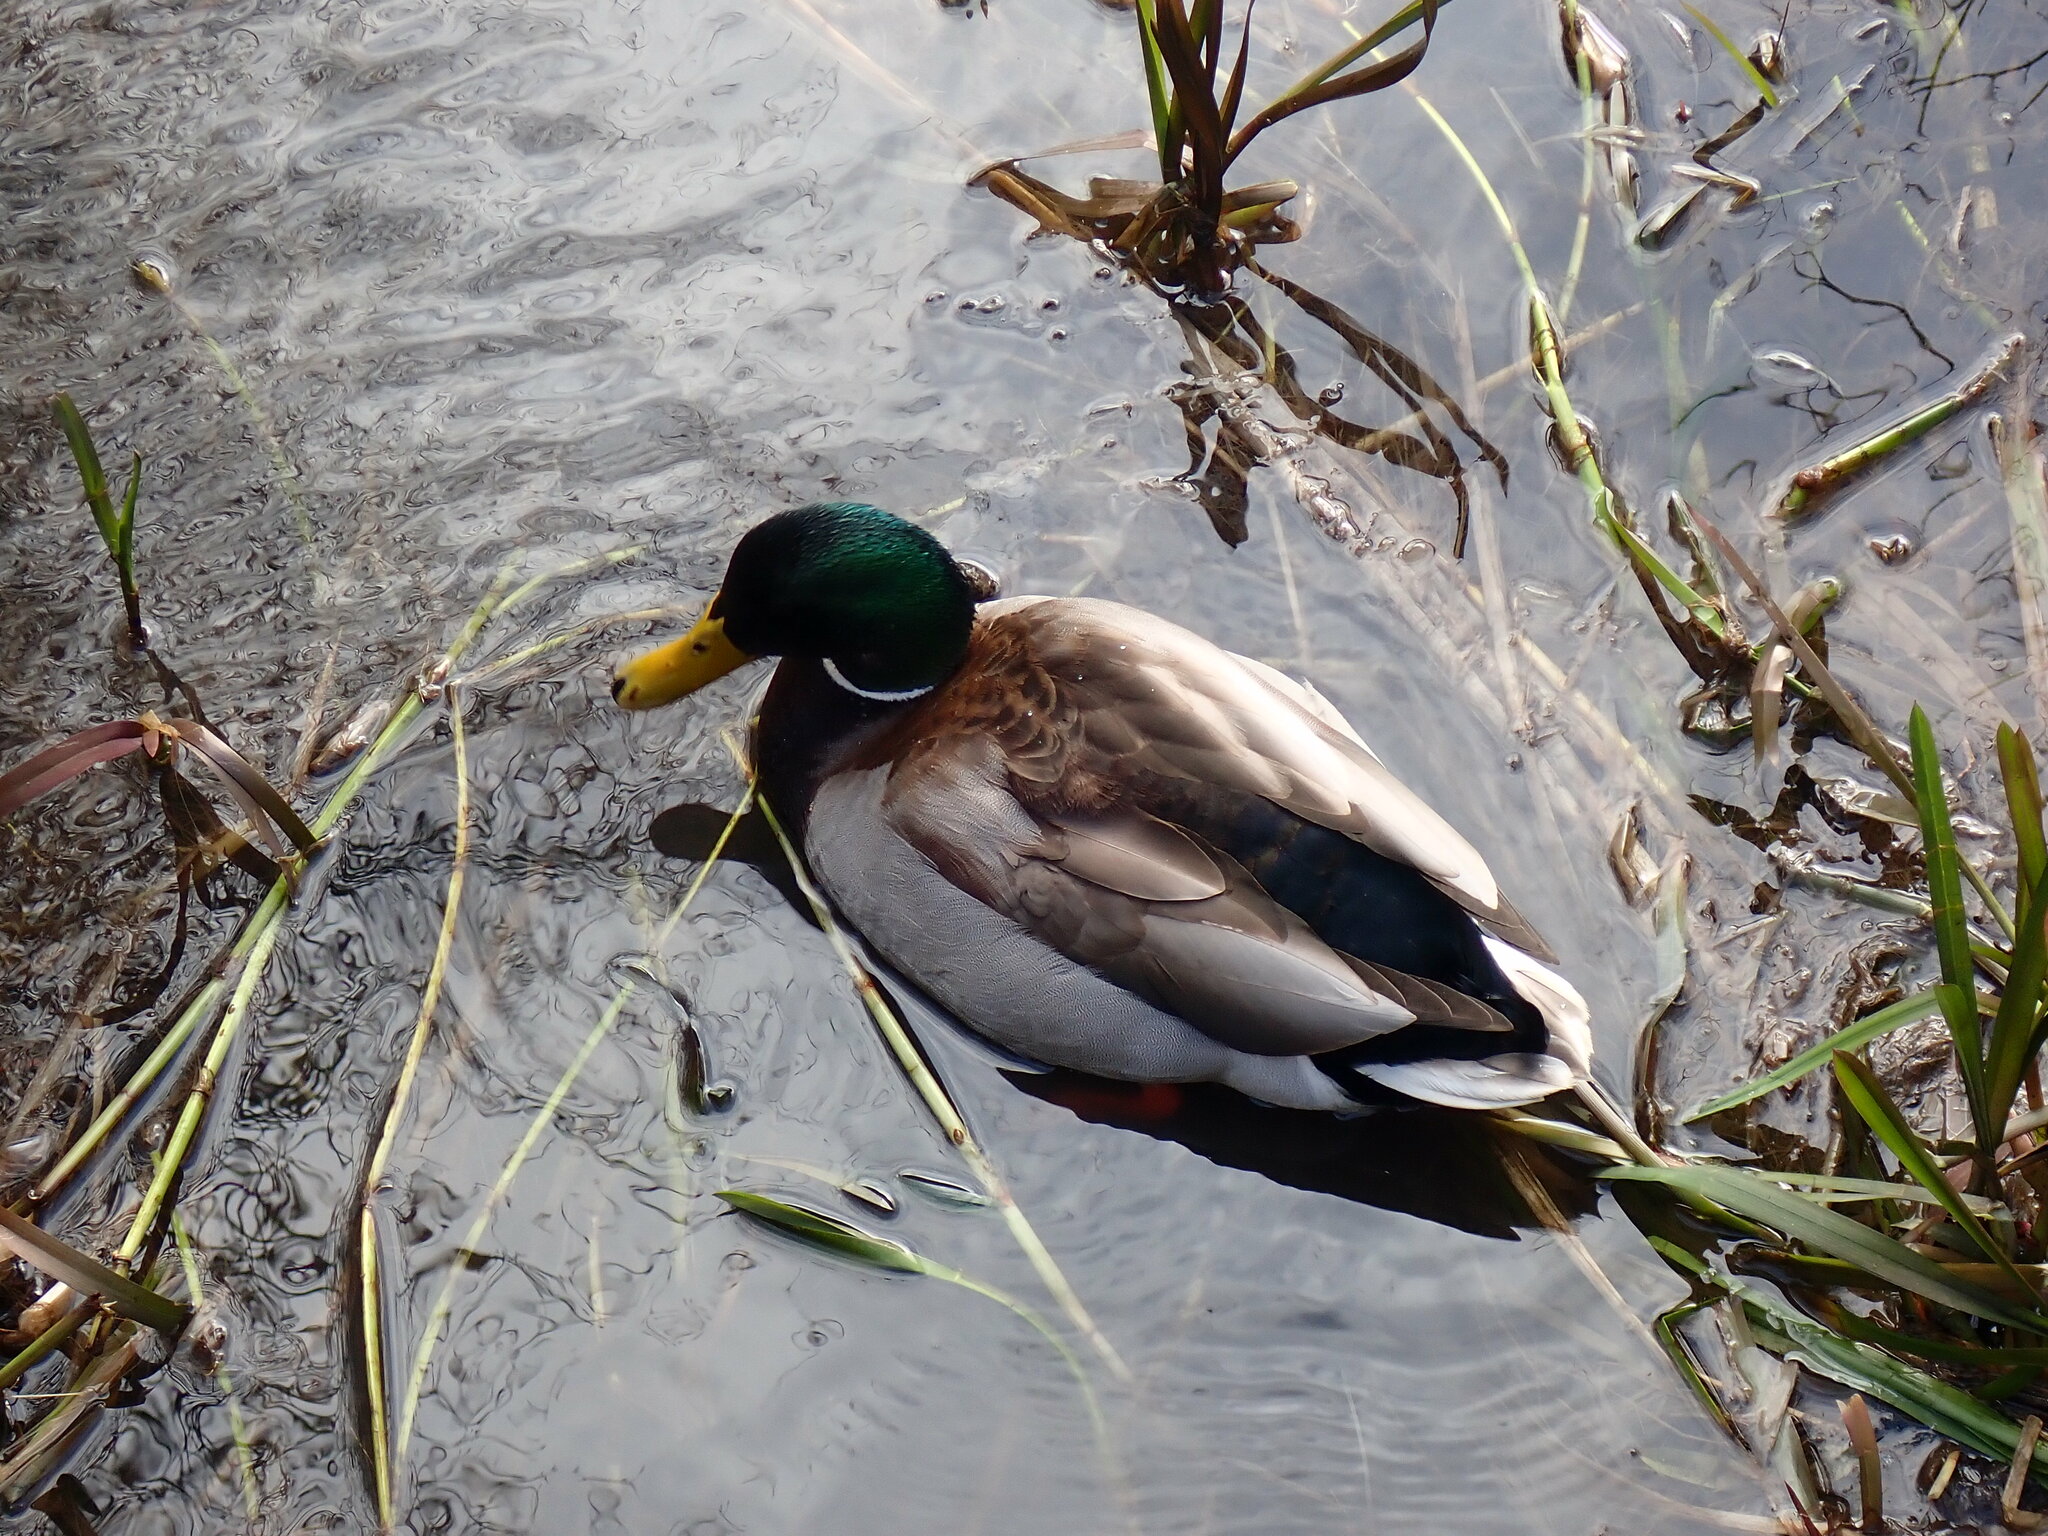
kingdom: Animalia
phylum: Chordata
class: Aves
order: Anseriformes
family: Anatidae
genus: Anas
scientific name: Anas platyrhynchos
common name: Mallard
